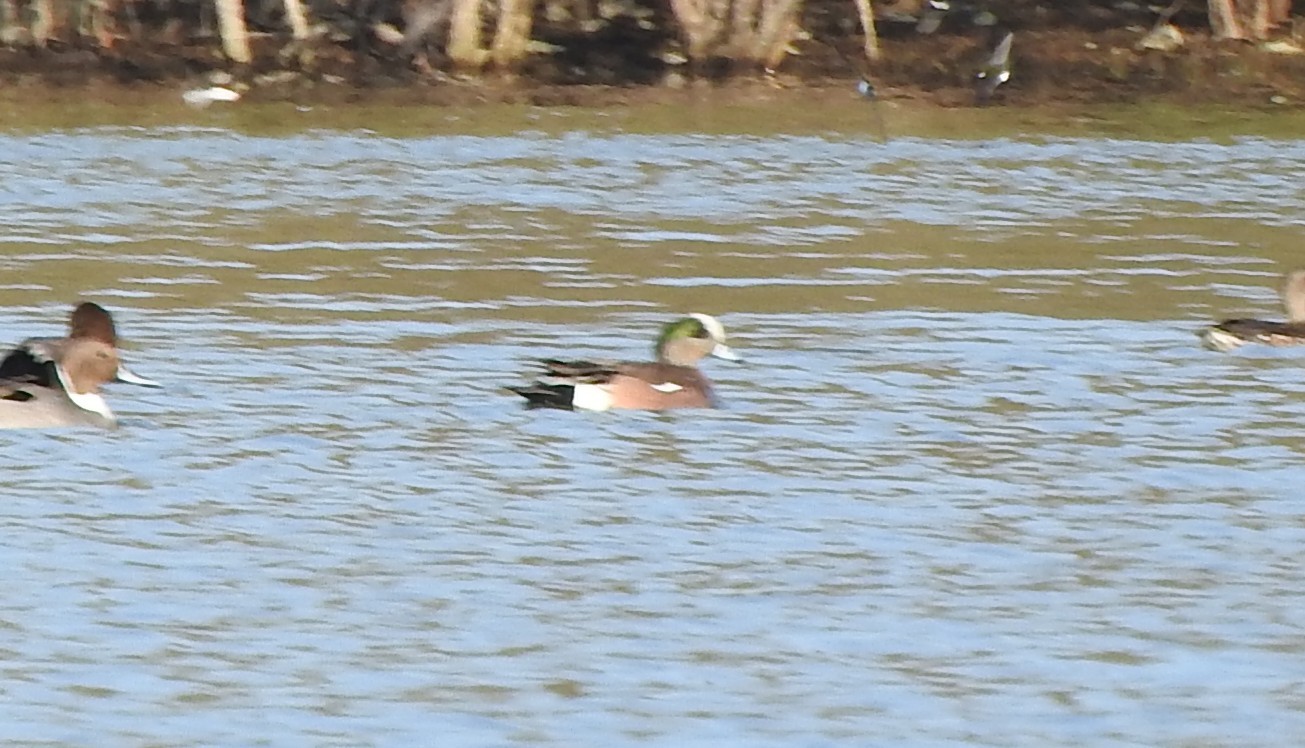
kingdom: Animalia
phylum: Chordata
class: Aves
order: Anseriformes
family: Anatidae
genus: Mareca
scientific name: Mareca americana
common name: American wigeon
